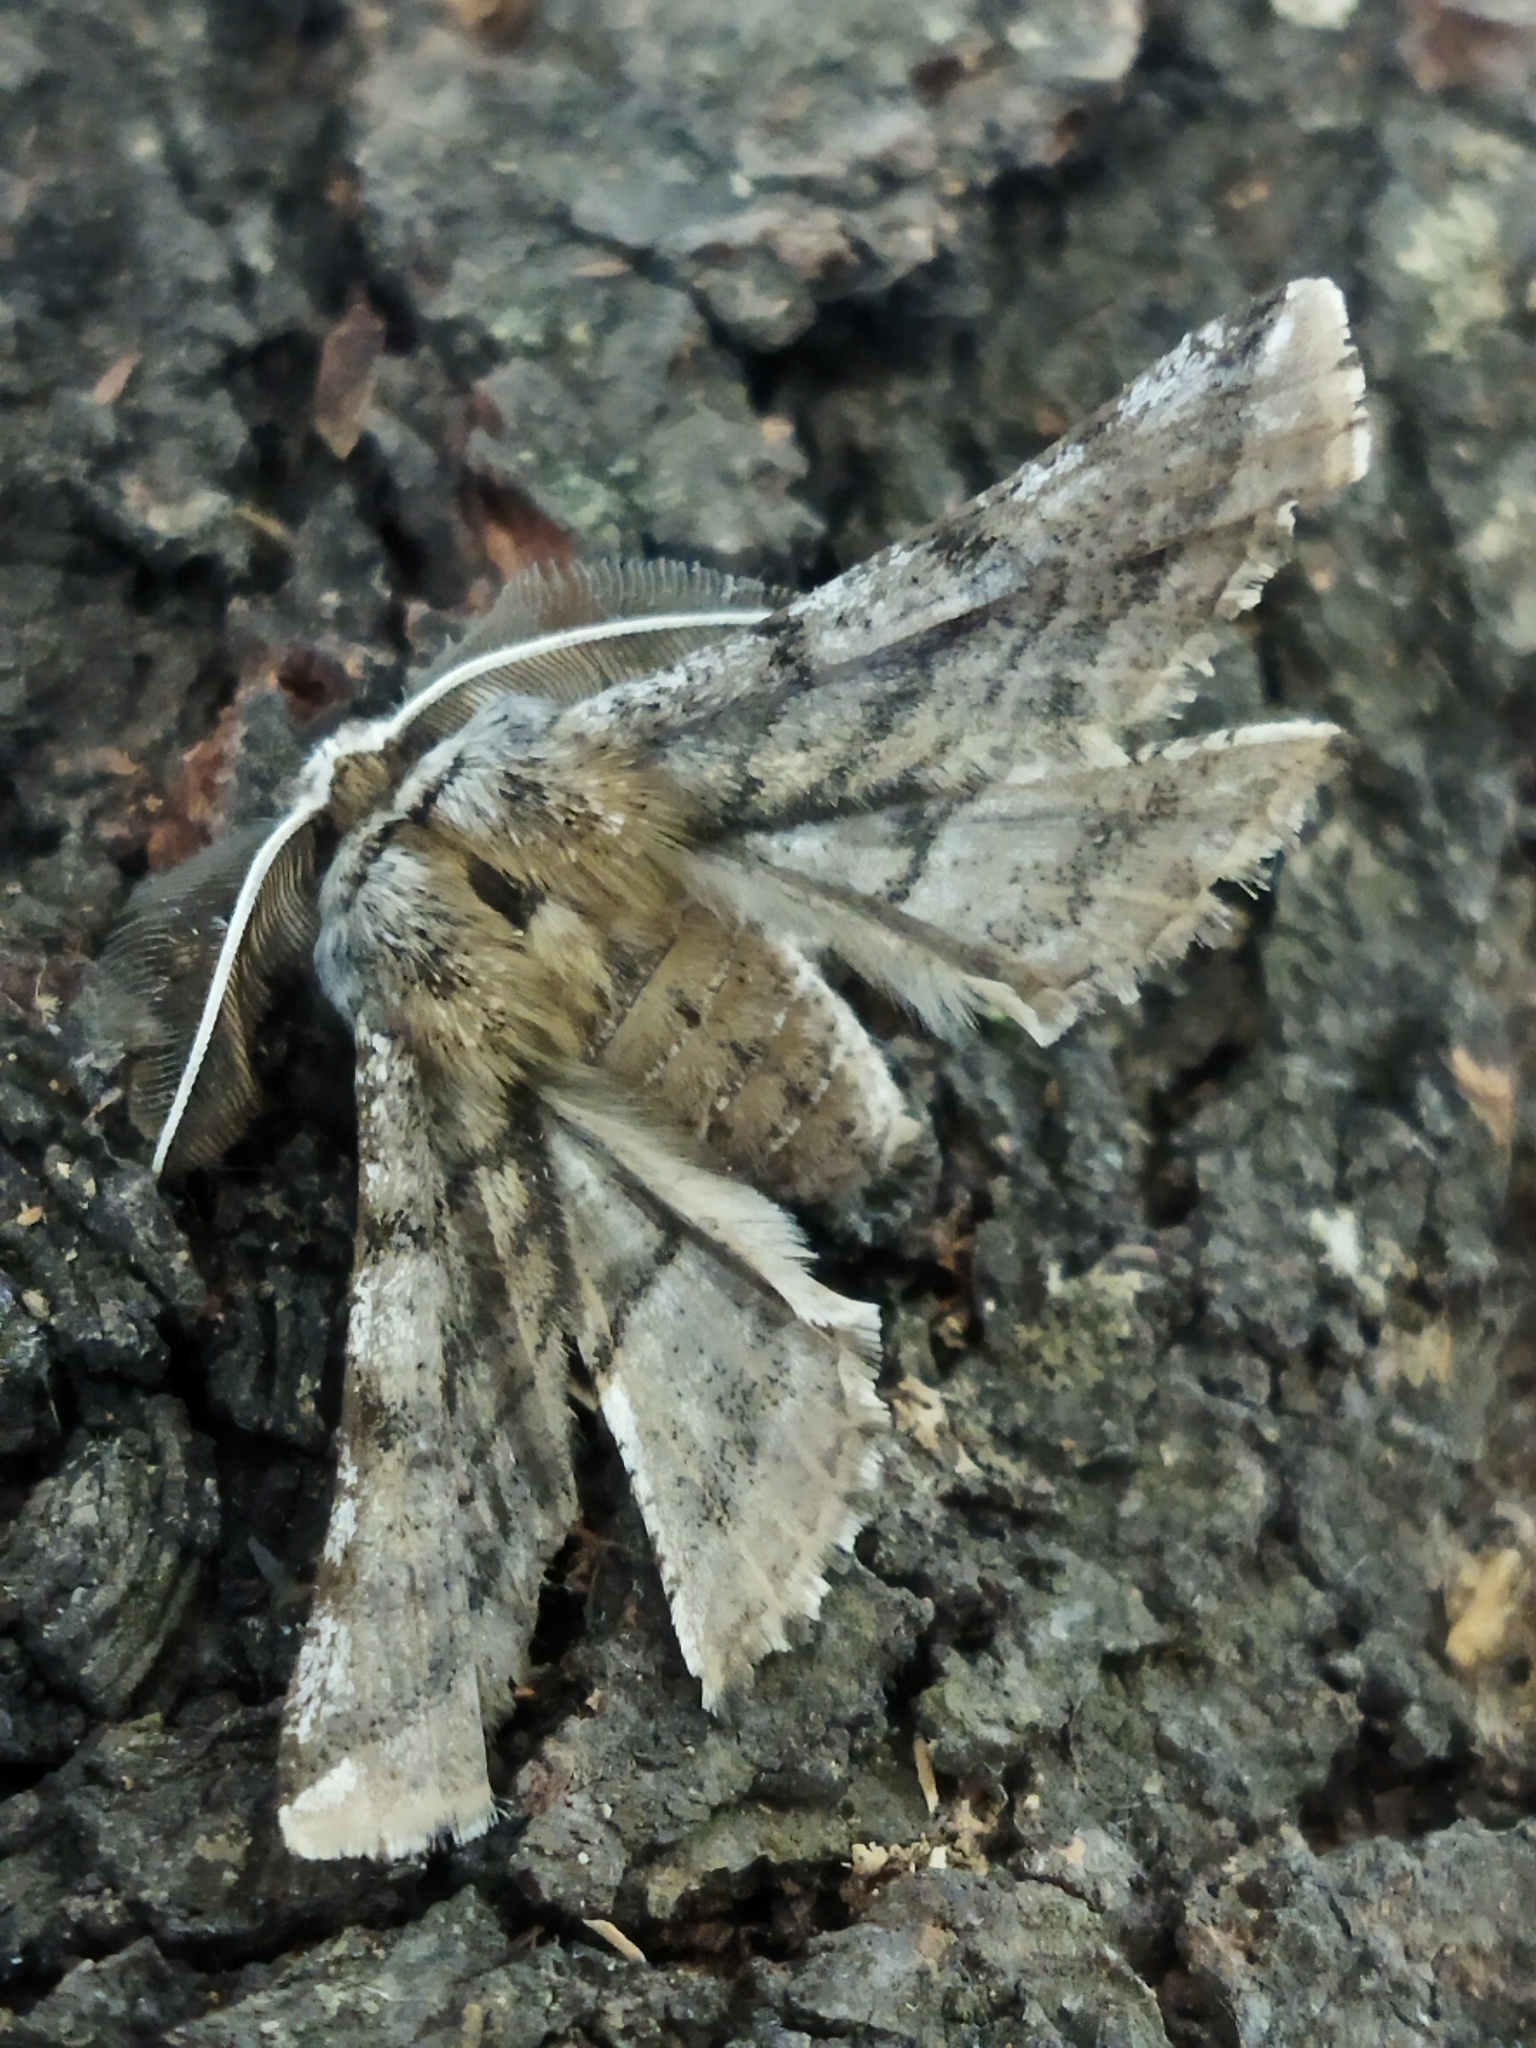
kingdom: Animalia
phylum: Arthropoda
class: Insecta
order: Lepidoptera
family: Geometridae
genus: Apochima
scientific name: Apochima flabellaria
